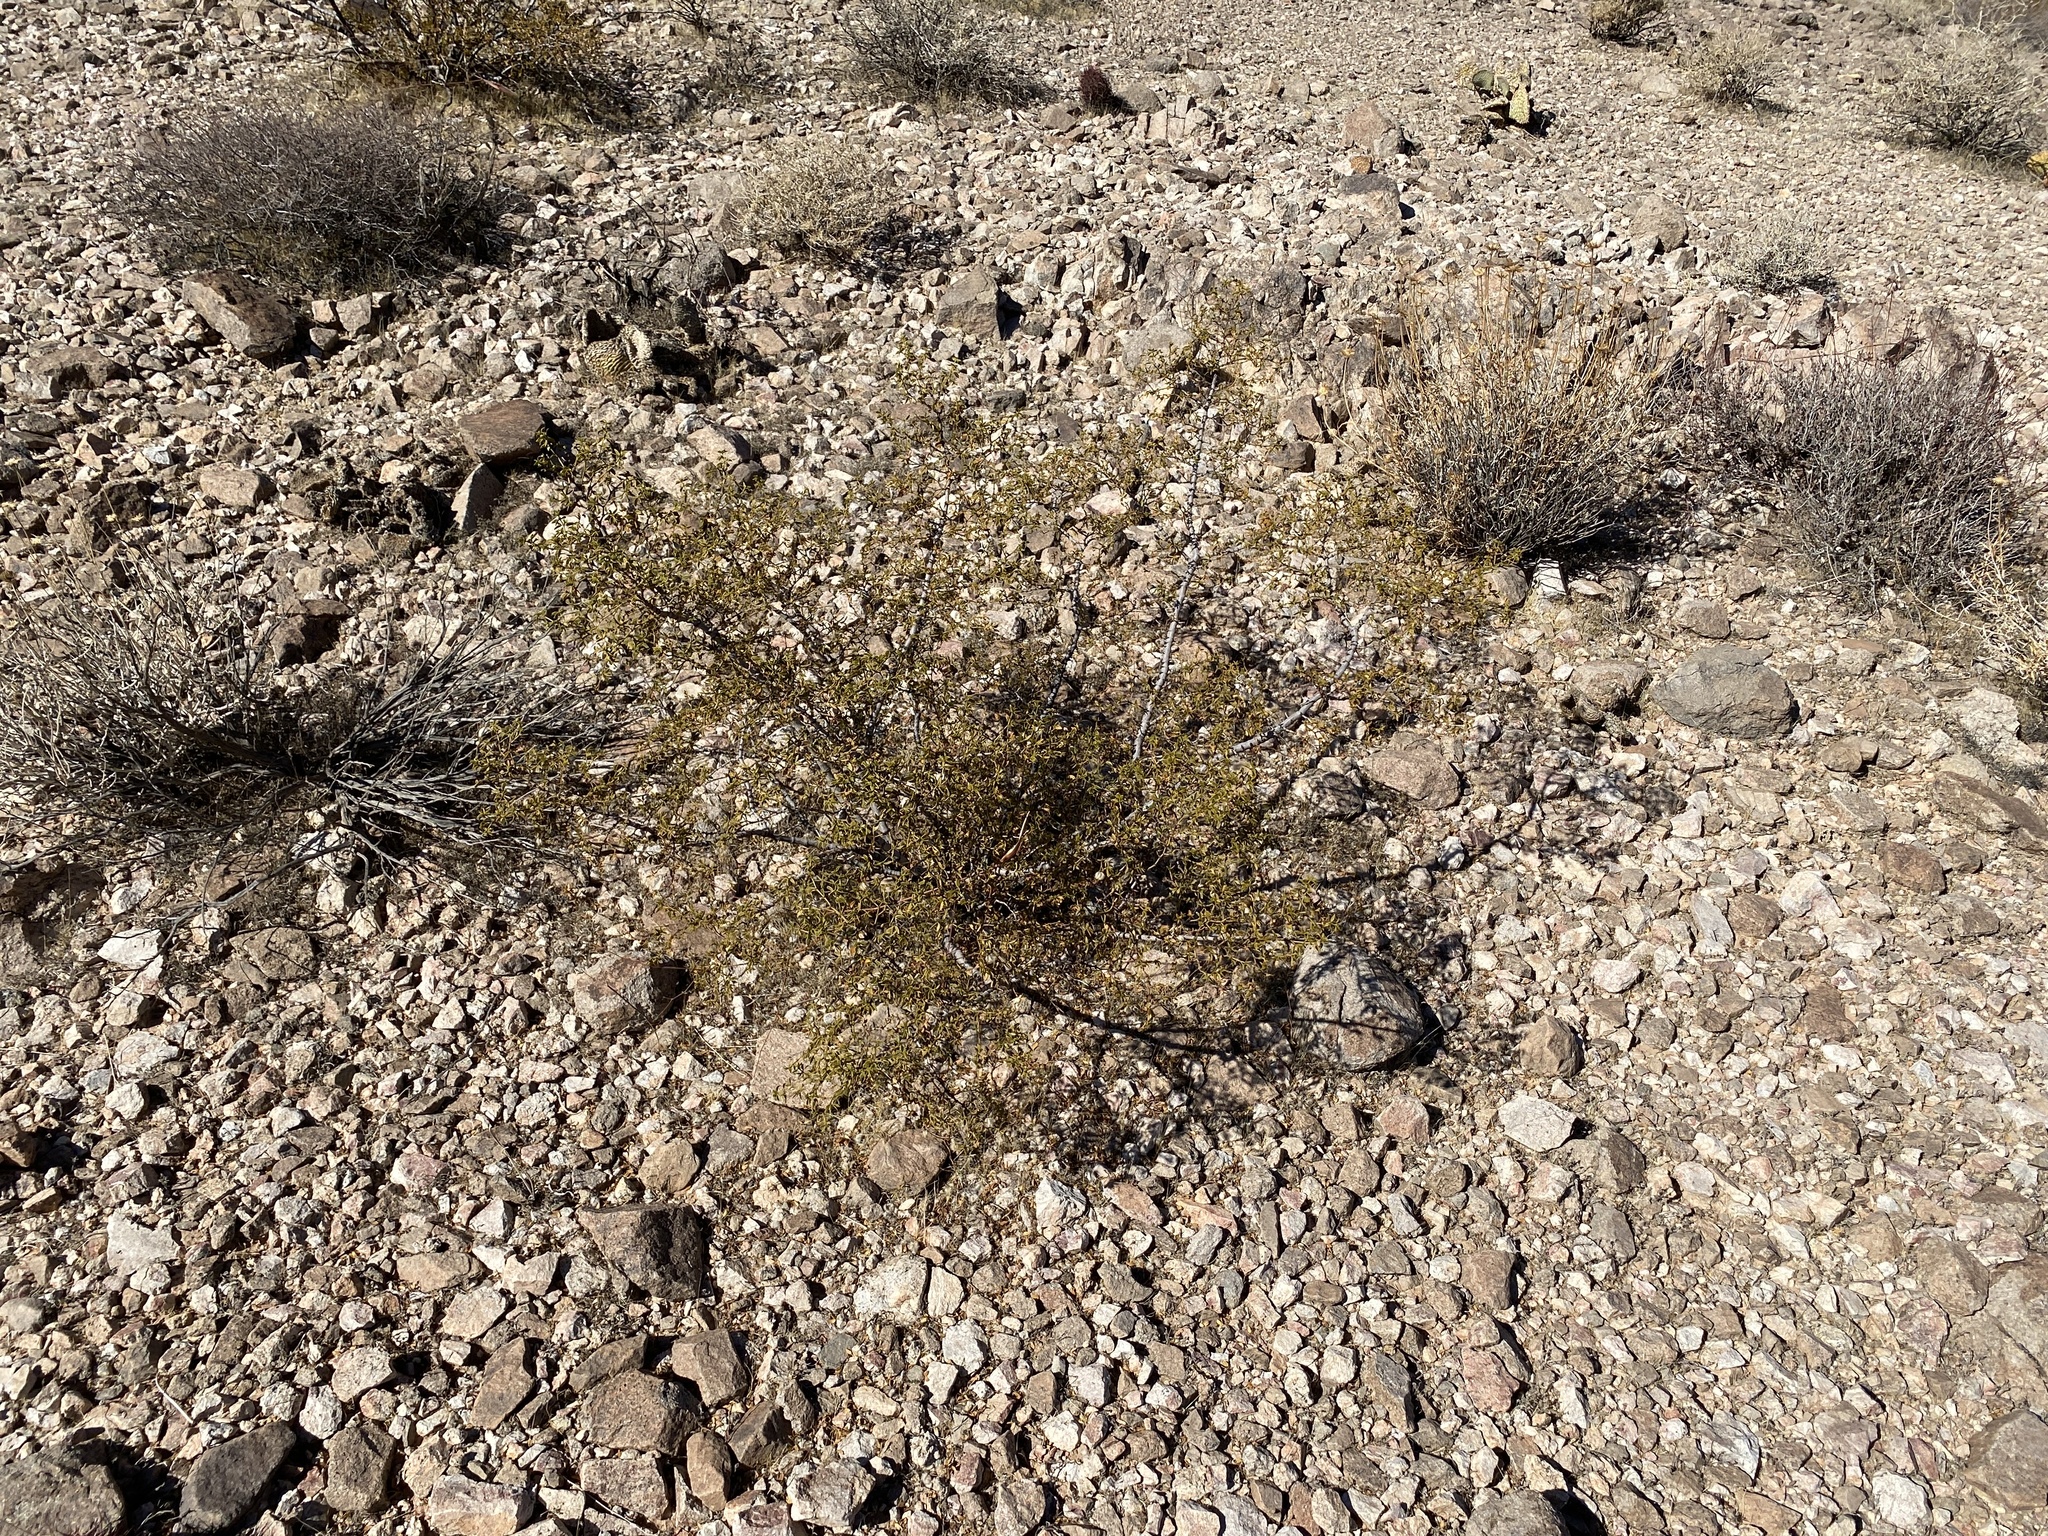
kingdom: Plantae
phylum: Tracheophyta
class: Magnoliopsida
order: Zygophyllales
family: Zygophyllaceae
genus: Larrea
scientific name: Larrea tridentata
